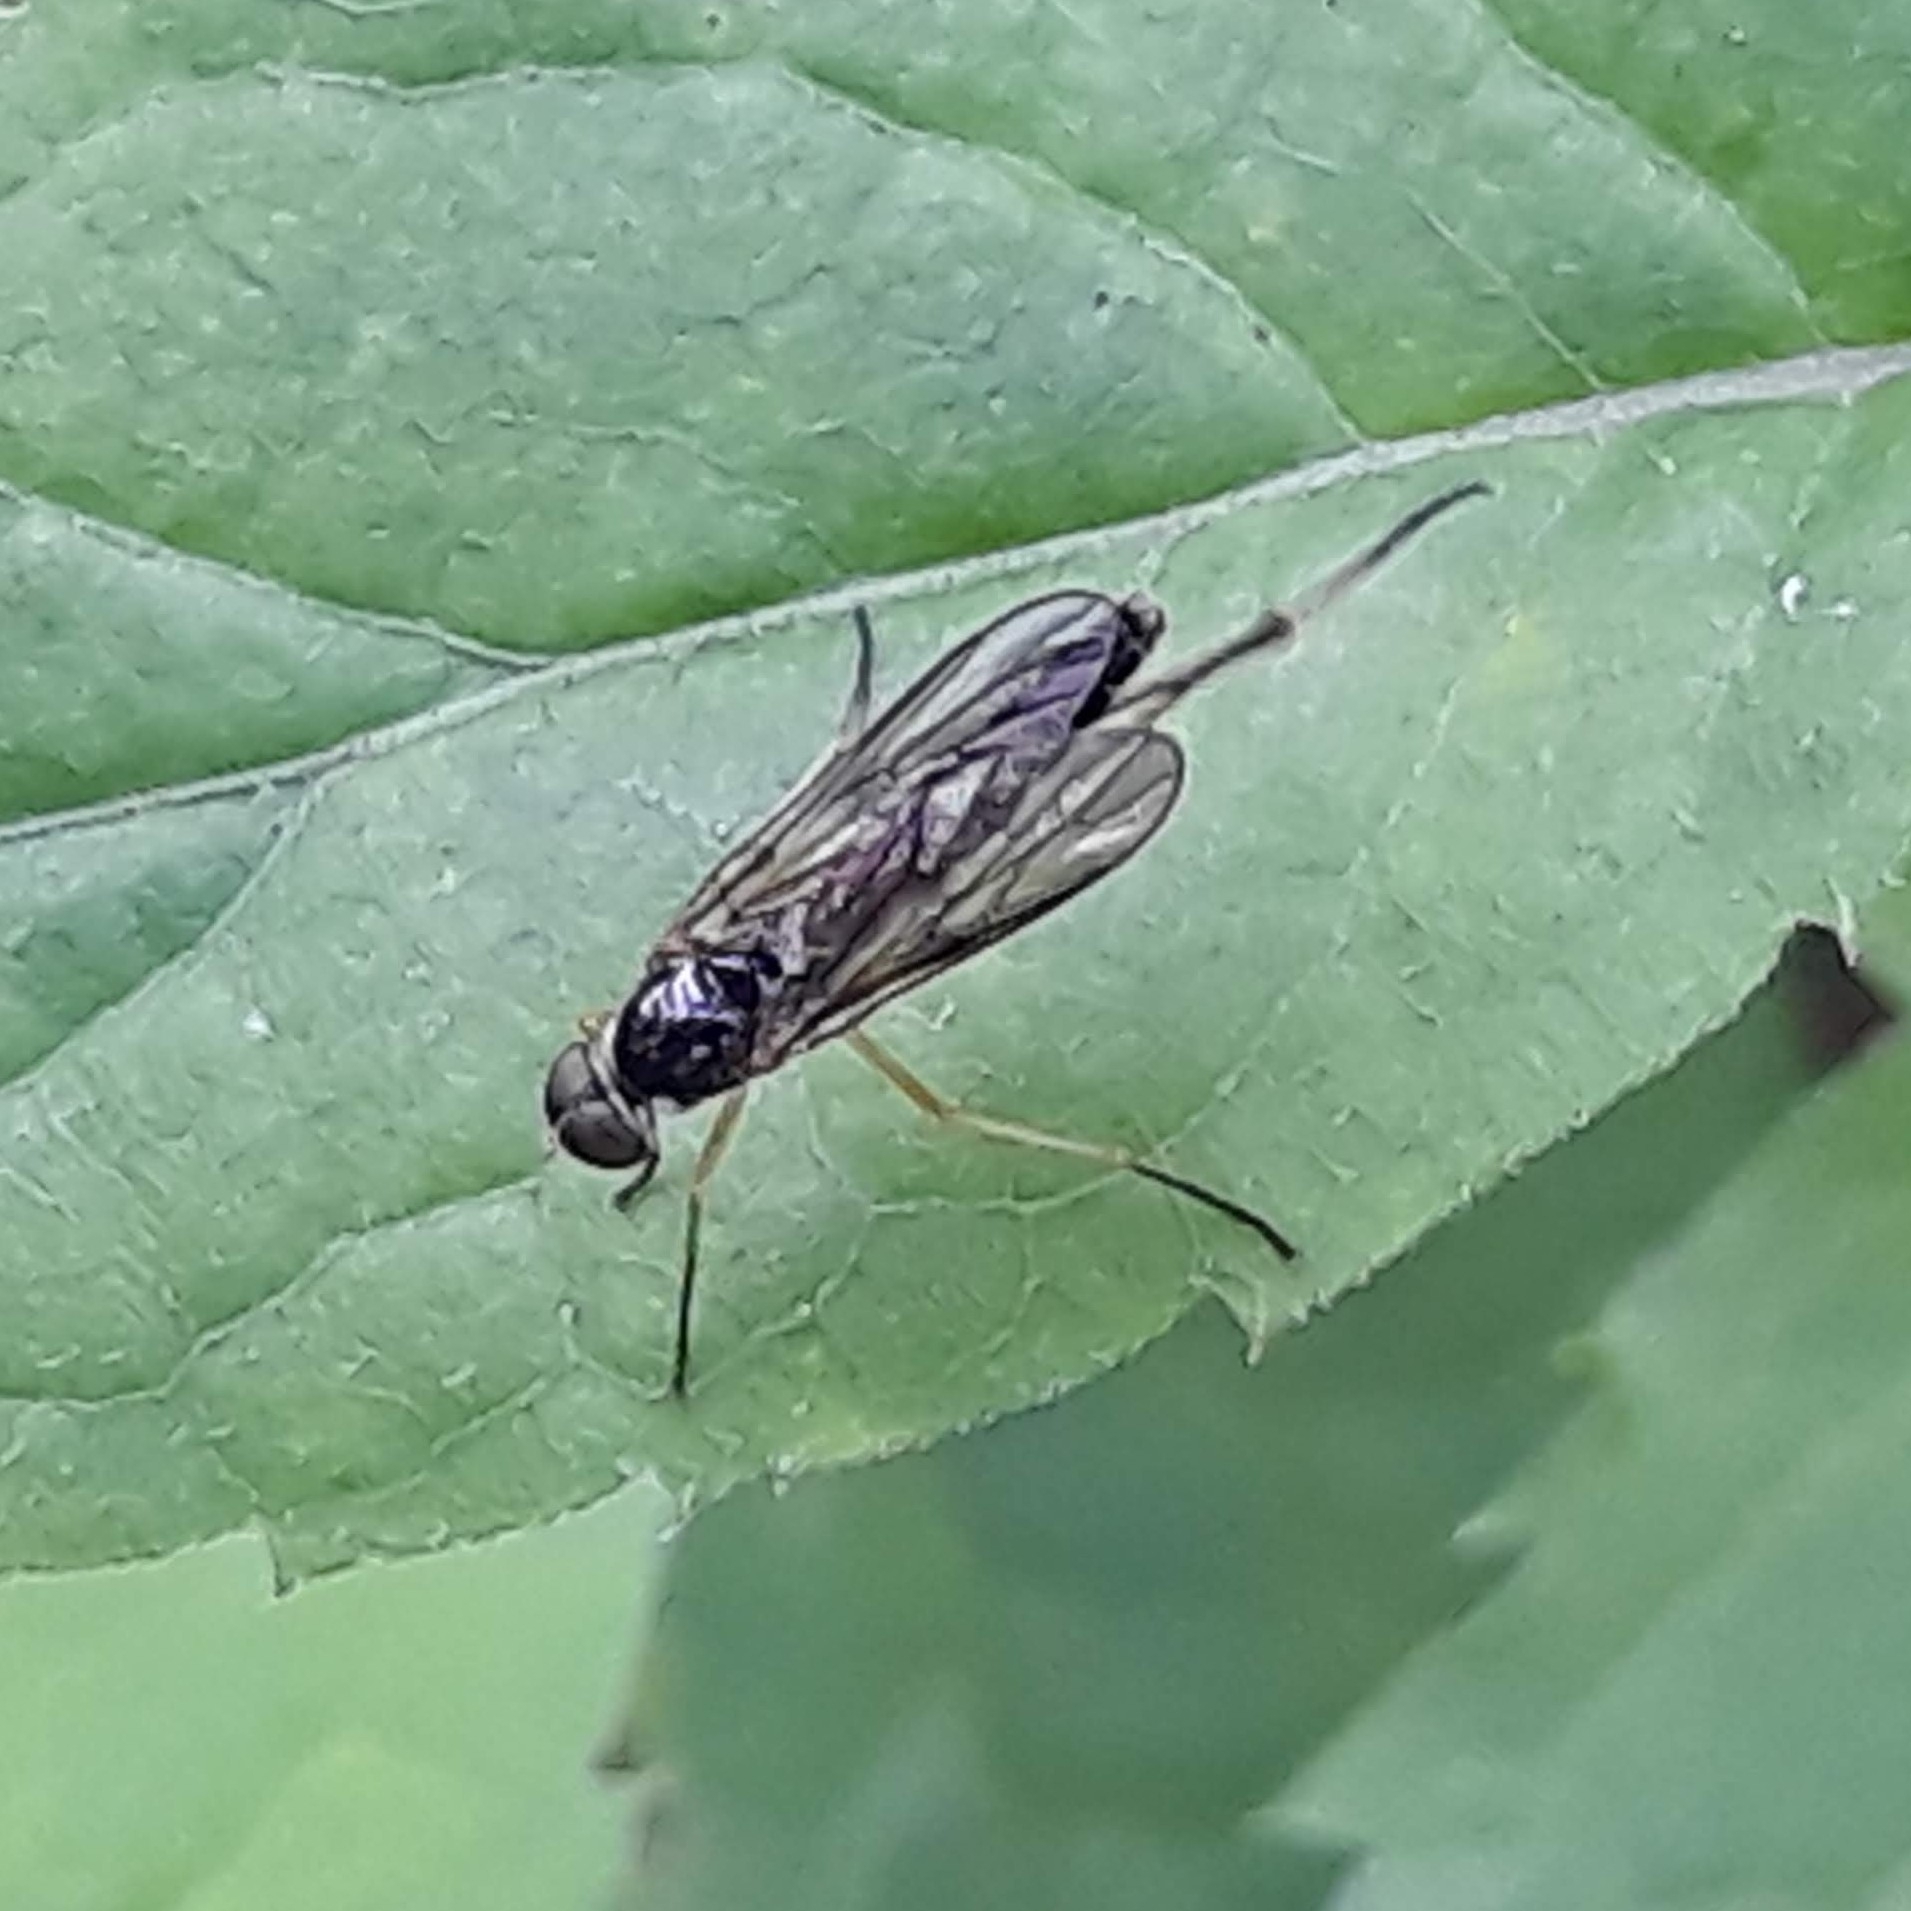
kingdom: Animalia
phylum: Arthropoda
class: Insecta
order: Diptera
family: Xylophagidae
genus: Dialysis
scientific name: Dialysis elongata
